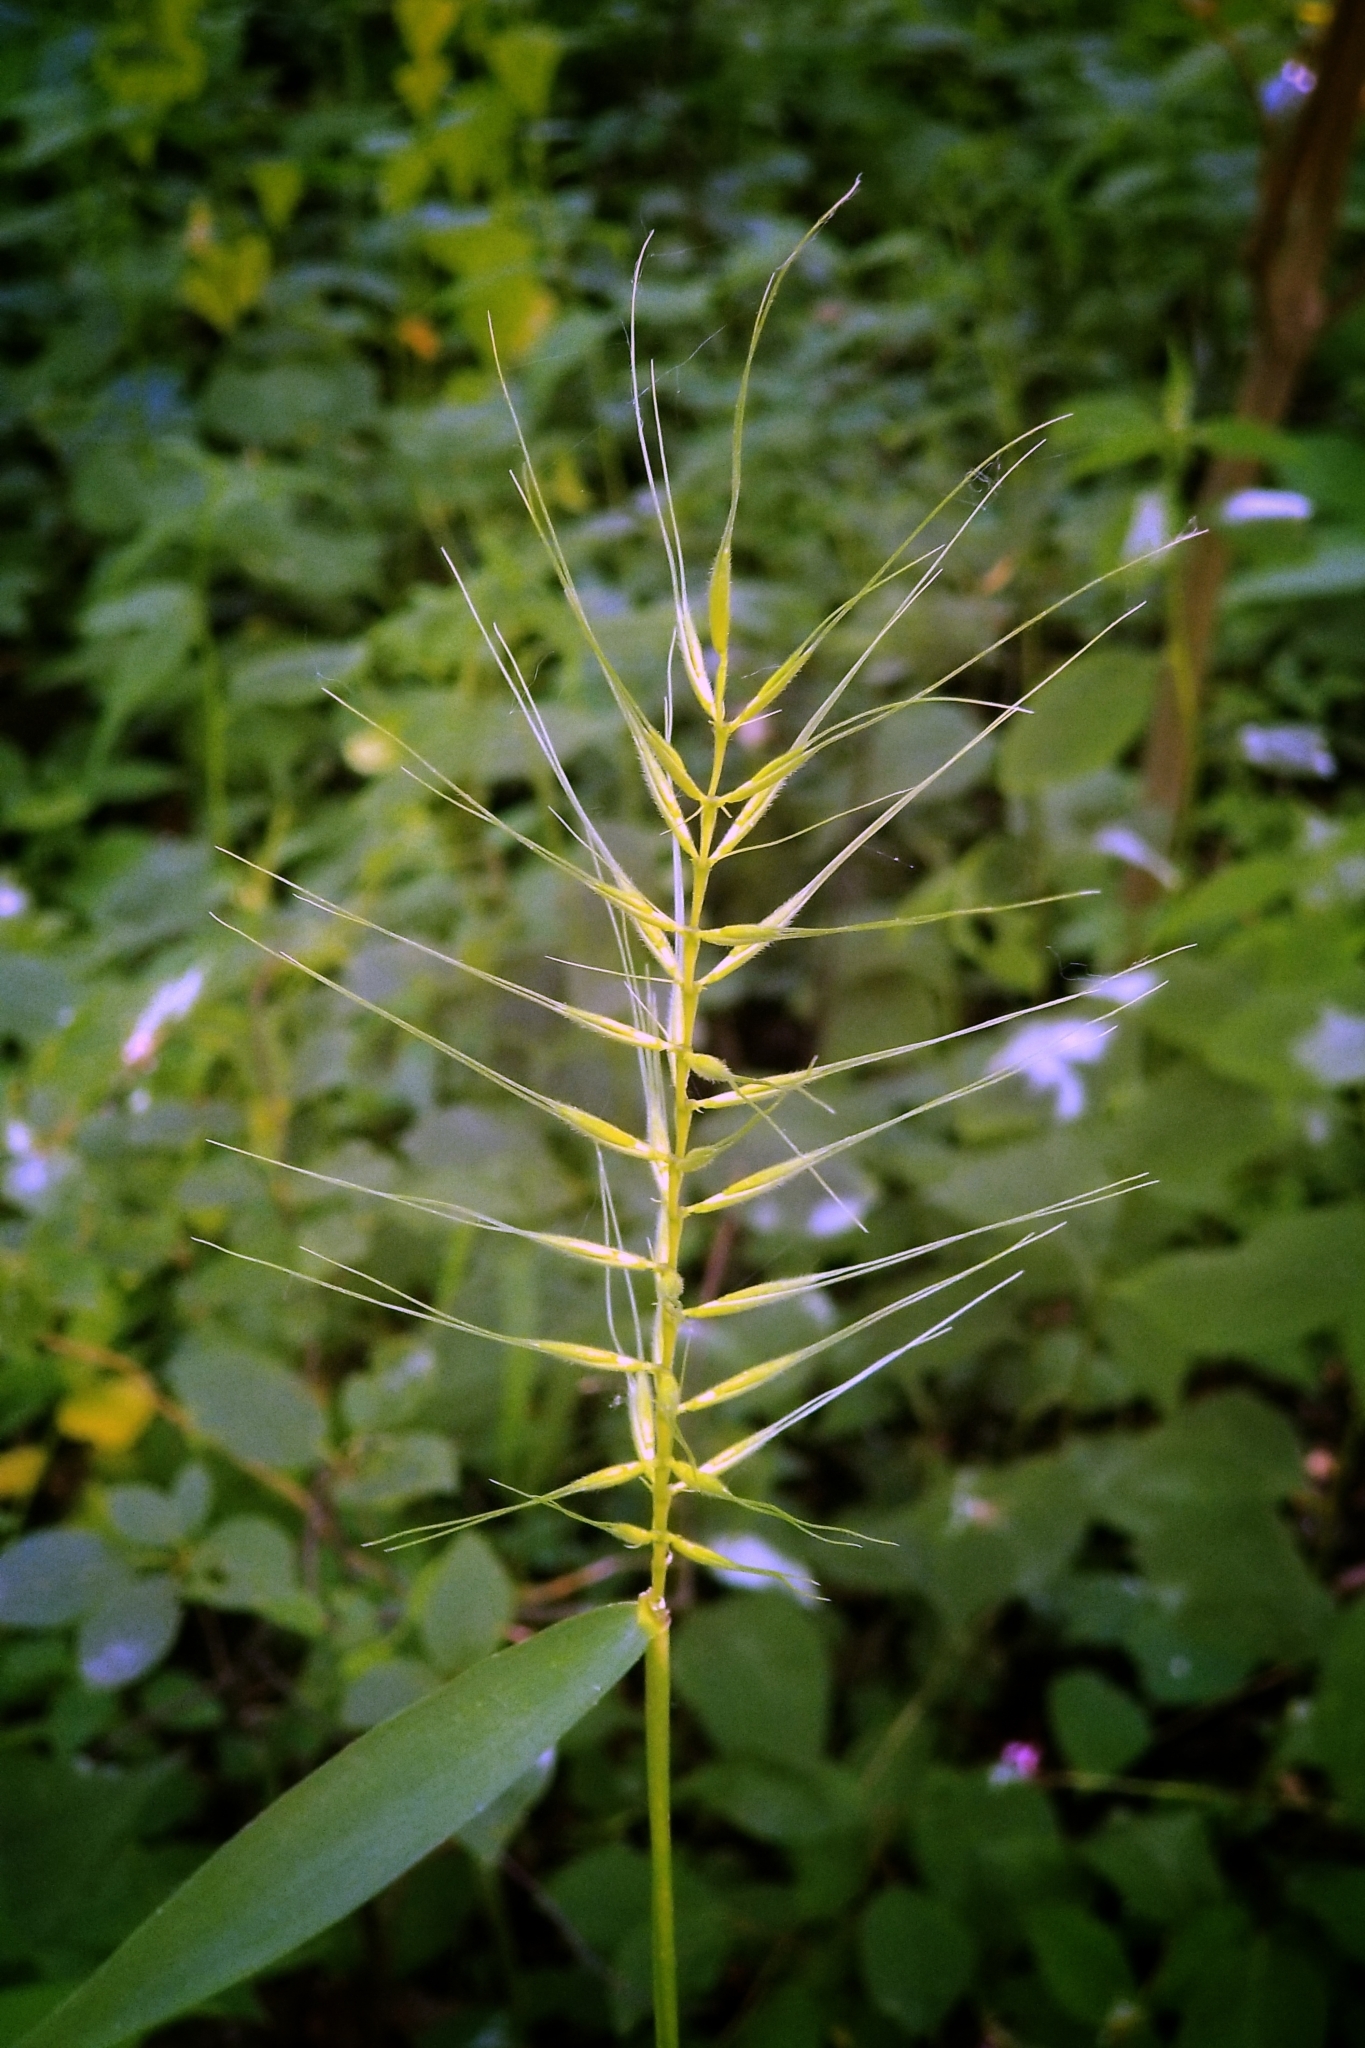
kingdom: Plantae
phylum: Tracheophyta
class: Liliopsida
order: Poales
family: Poaceae
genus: Elymus
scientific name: Elymus hystrix
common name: Bottlebrush grass
